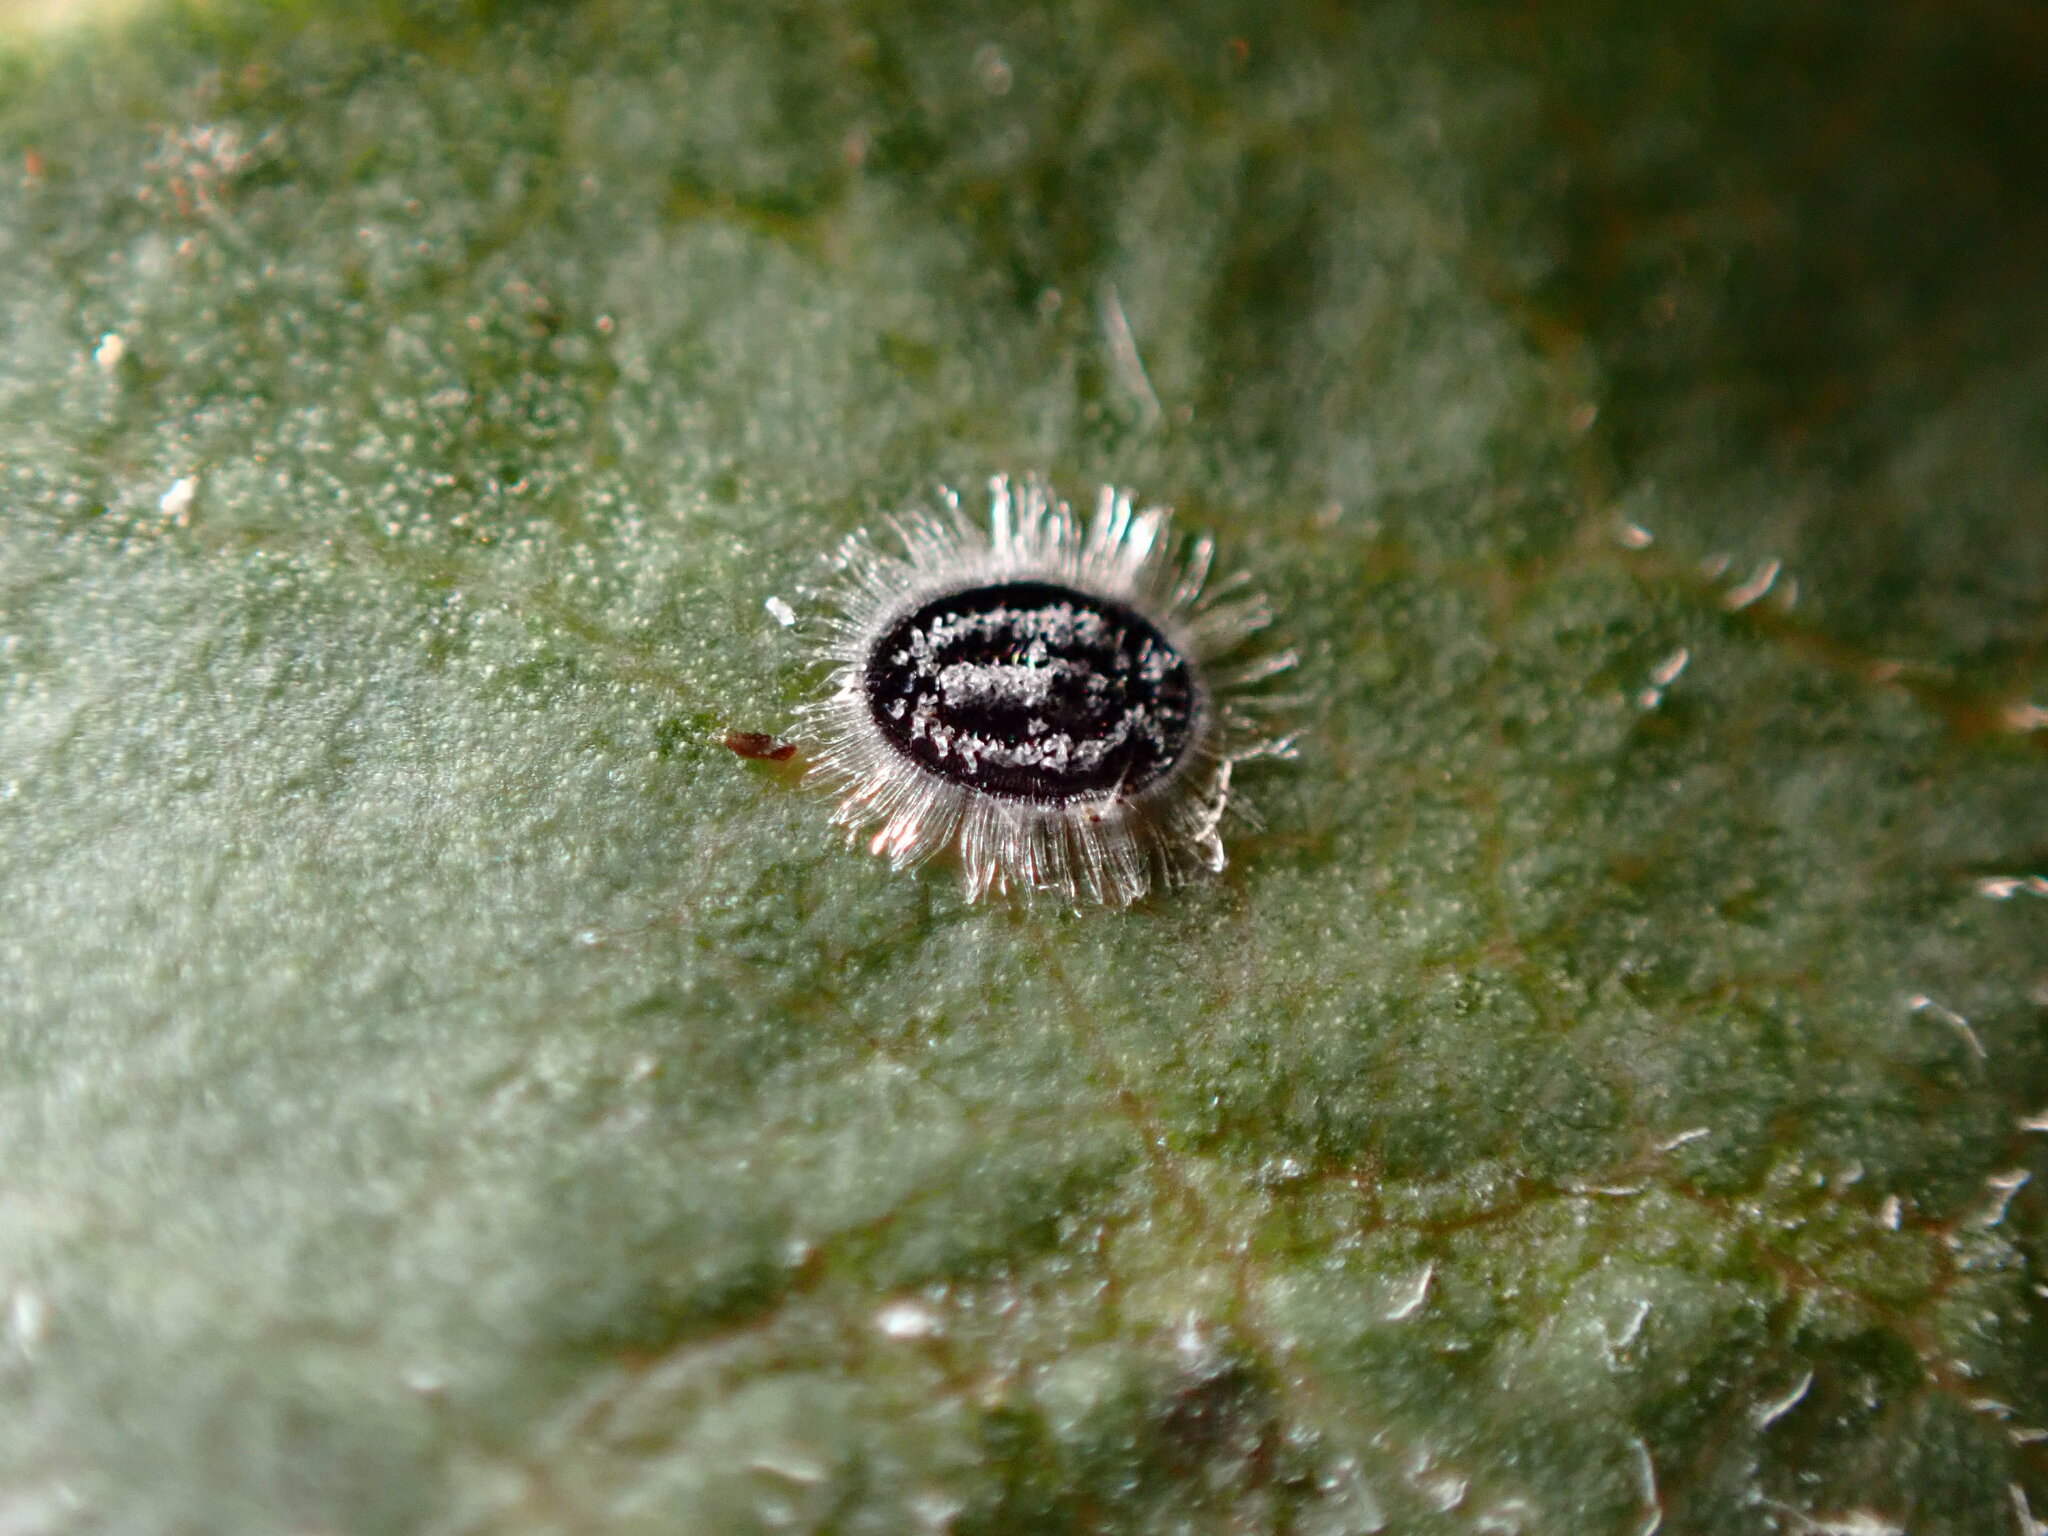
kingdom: Animalia
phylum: Arthropoda
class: Insecta
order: Hemiptera
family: Aleyrodidae
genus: Aleuroparadoxus
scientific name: Aleuroparadoxus arctostaphyli
